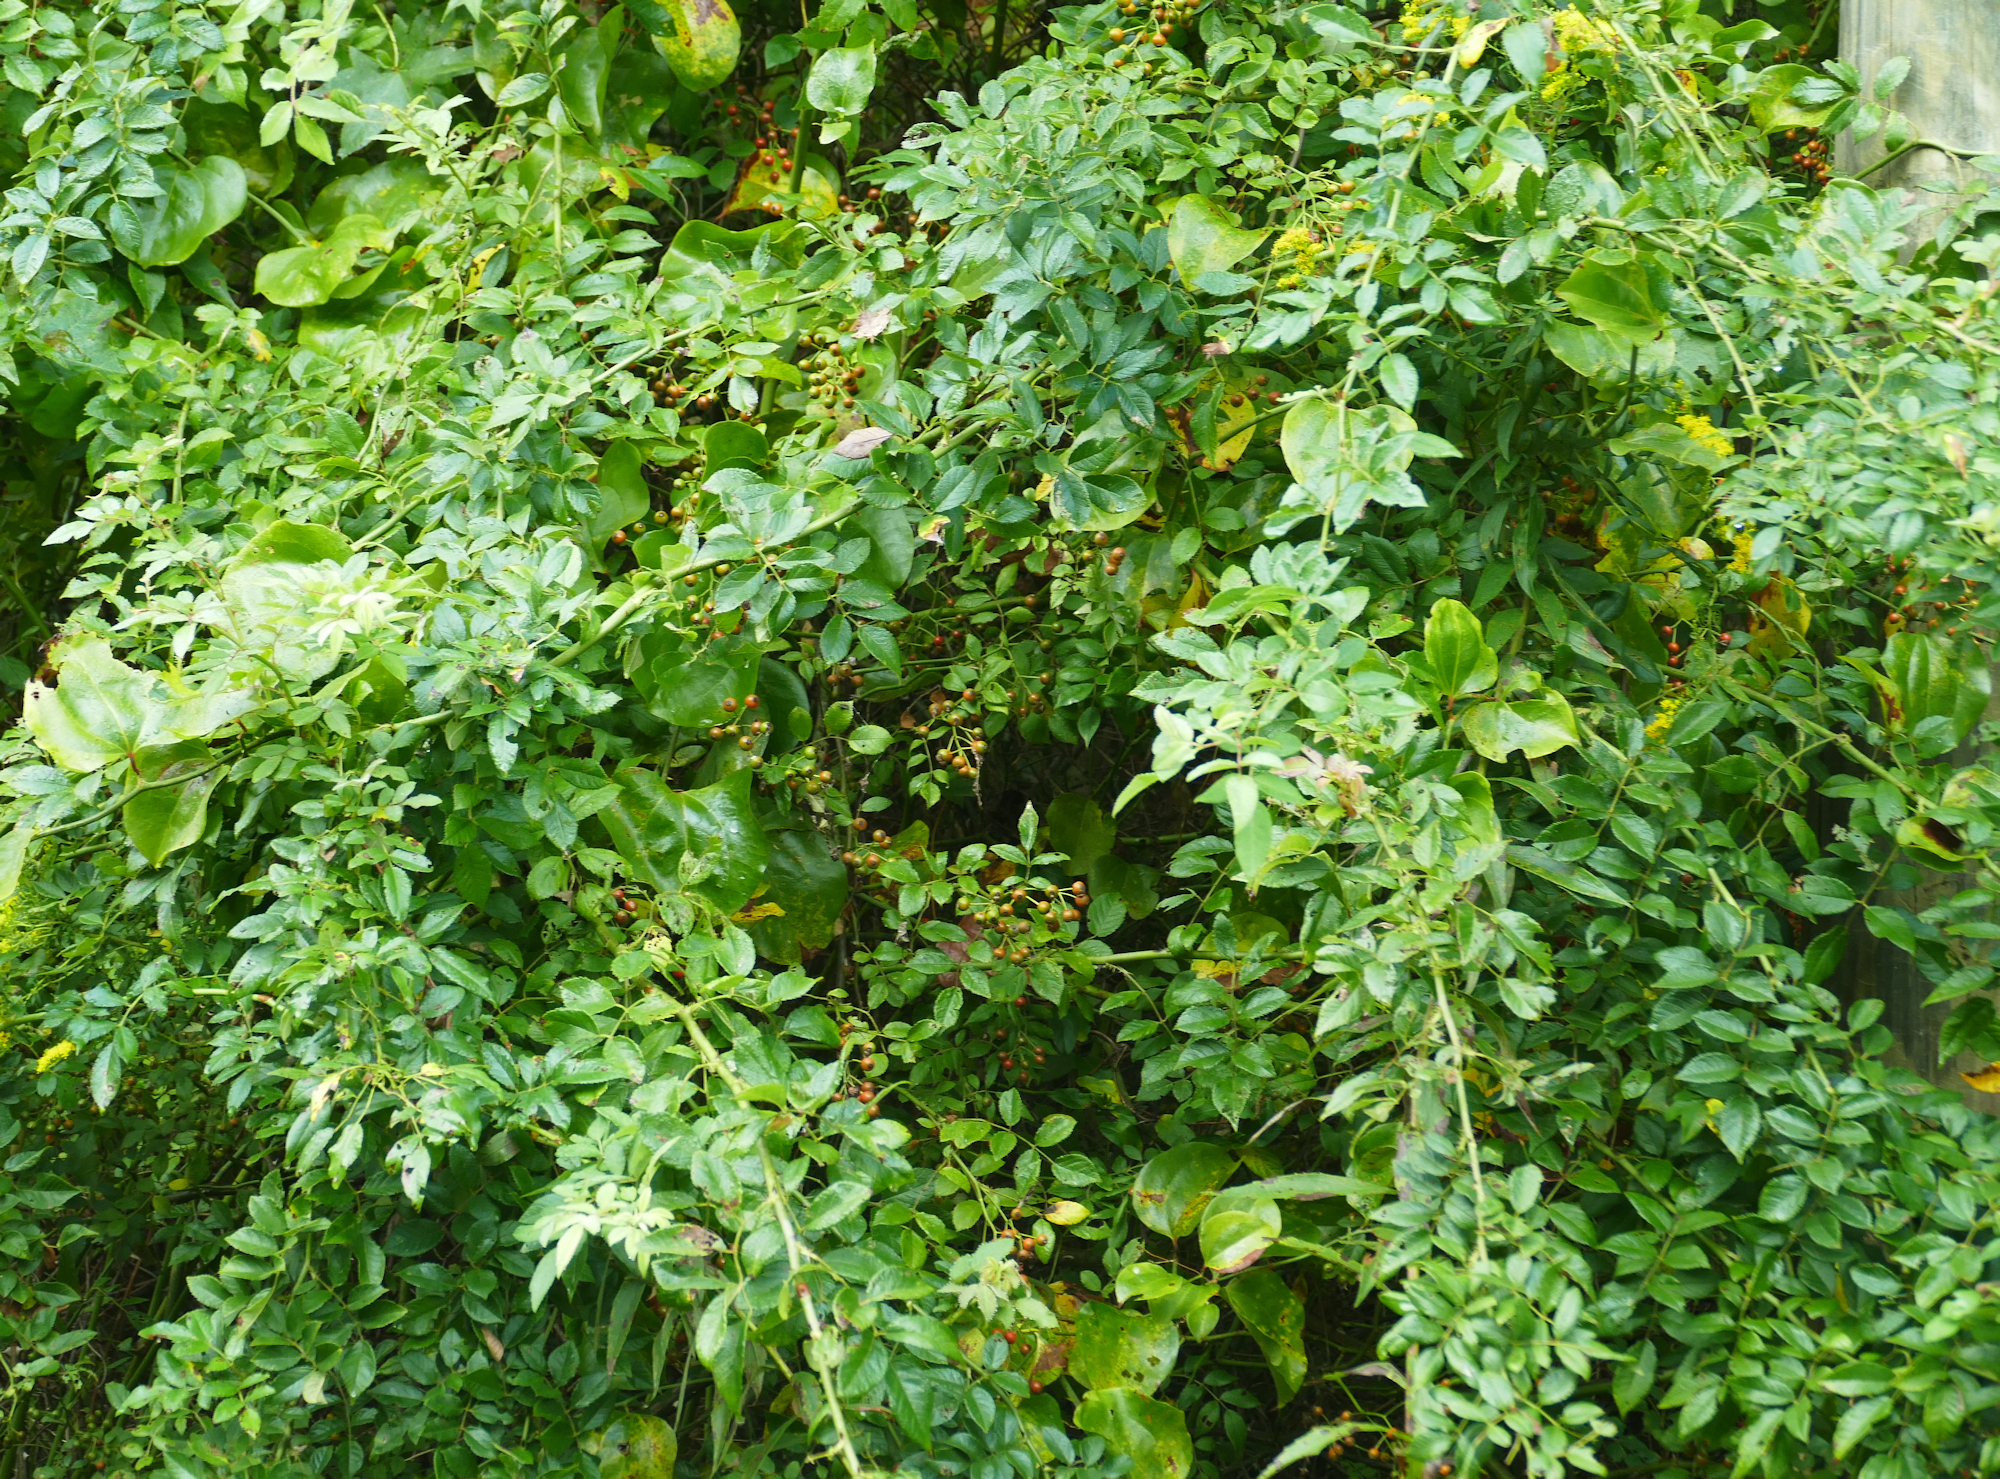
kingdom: Plantae
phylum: Tracheophyta
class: Magnoliopsida
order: Rosales
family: Rosaceae
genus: Rosa
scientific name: Rosa multiflora
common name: Multiflora rose
